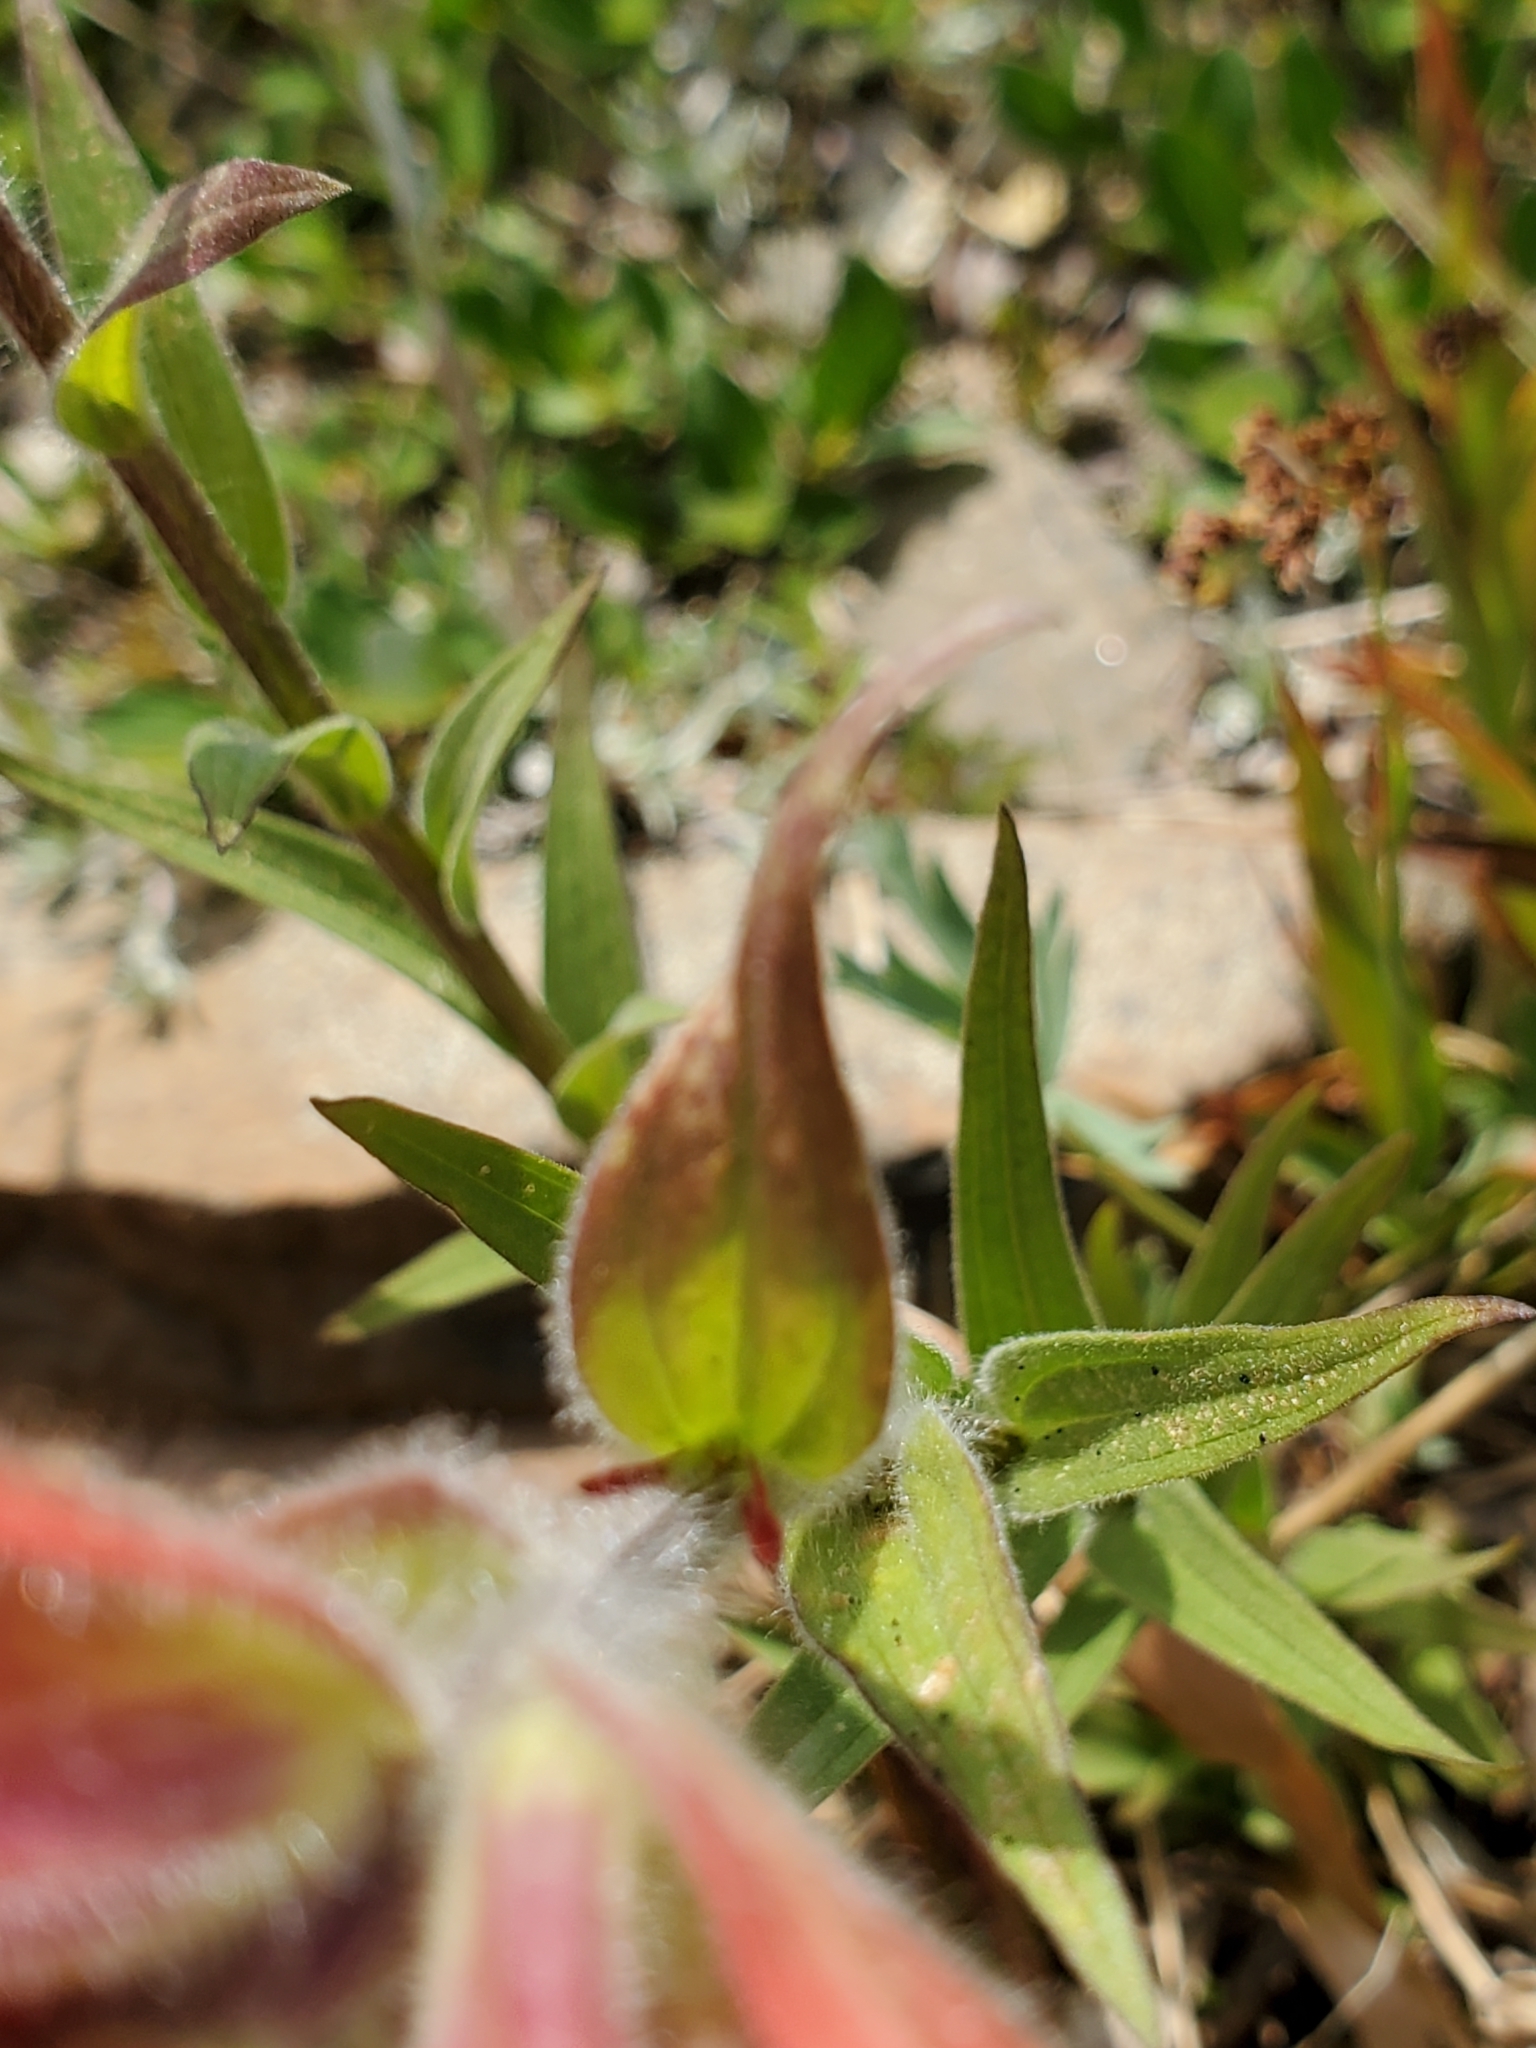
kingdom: Plantae
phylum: Tracheophyta
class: Magnoliopsida
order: Lamiales
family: Orobanchaceae
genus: Castilleja
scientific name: Castilleja miniata
